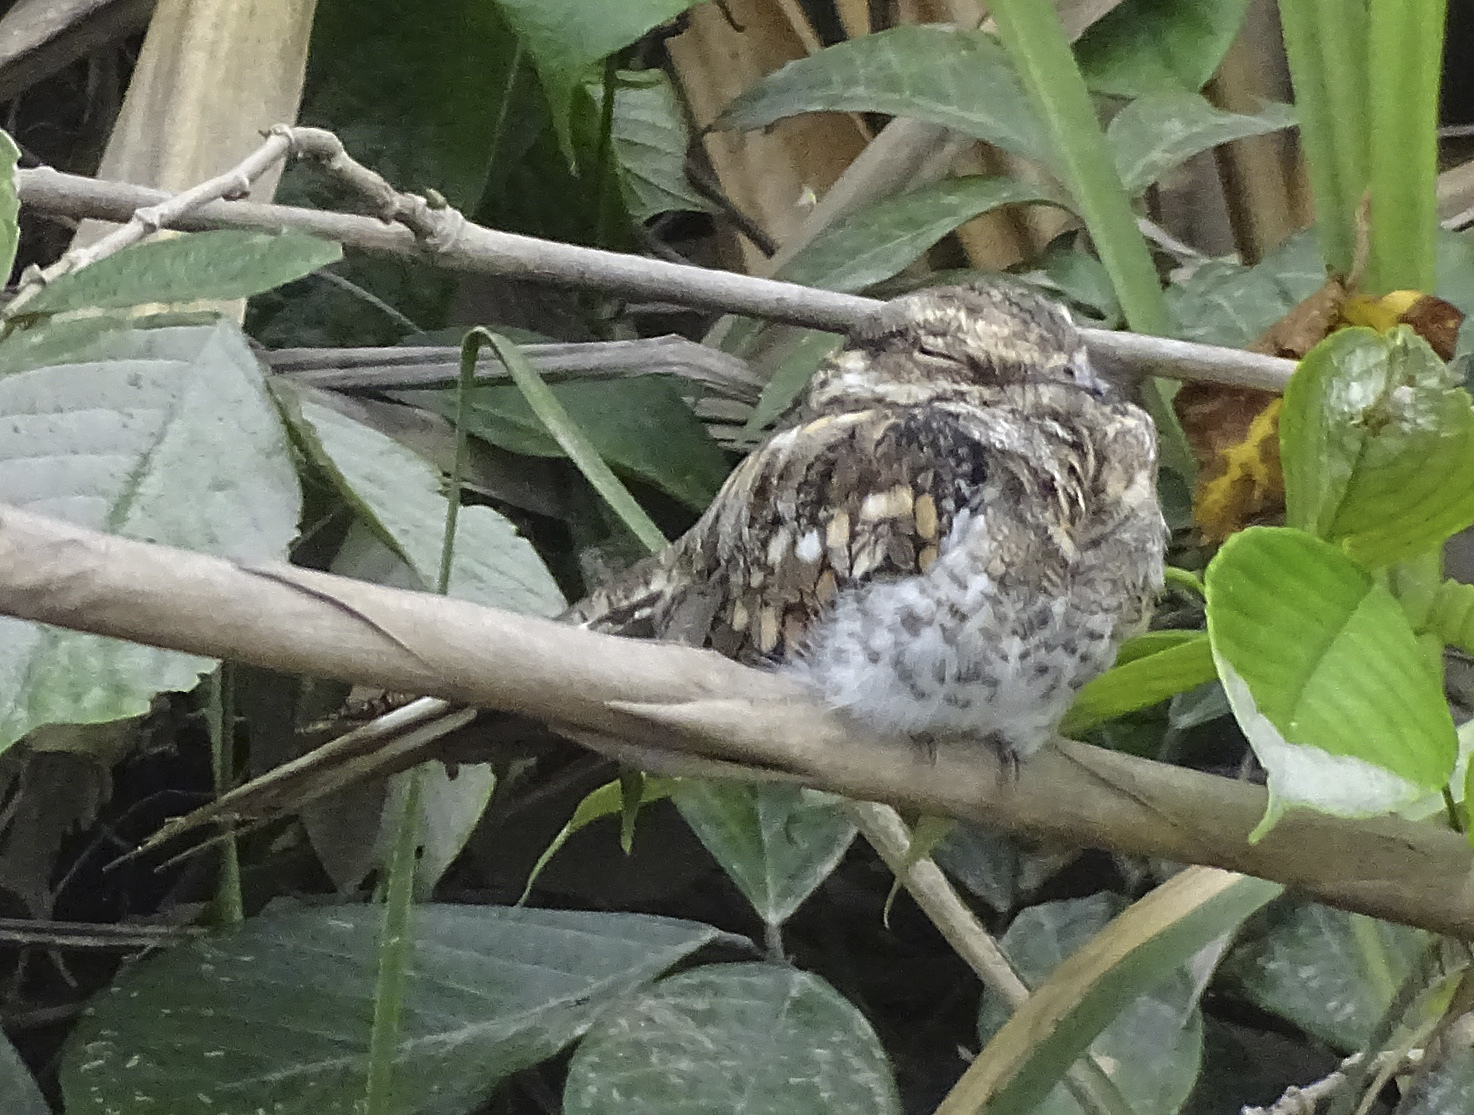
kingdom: Animalia
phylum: Chordata
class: Aves
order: Caprimulgiformes
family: Caprimulgidae
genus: Hydropsalis
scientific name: Hydropsalis climacocerca
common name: Ladder-tailed nightjar
